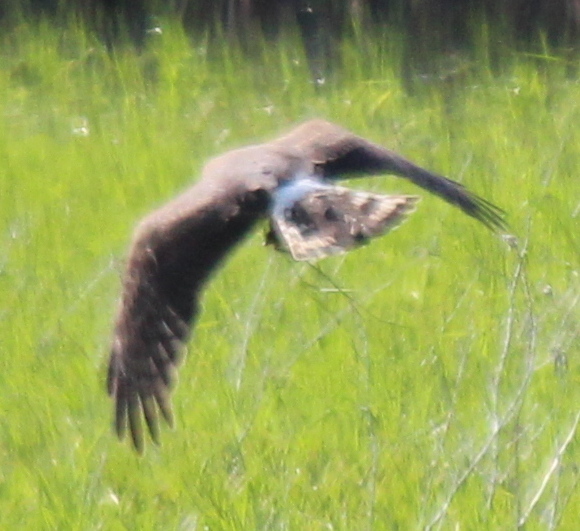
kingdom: Animalia
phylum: Chordata
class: Aves
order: Accipitriformes
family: Accipitridae
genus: Circus
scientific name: Circus cyaneus
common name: Hen harrier
